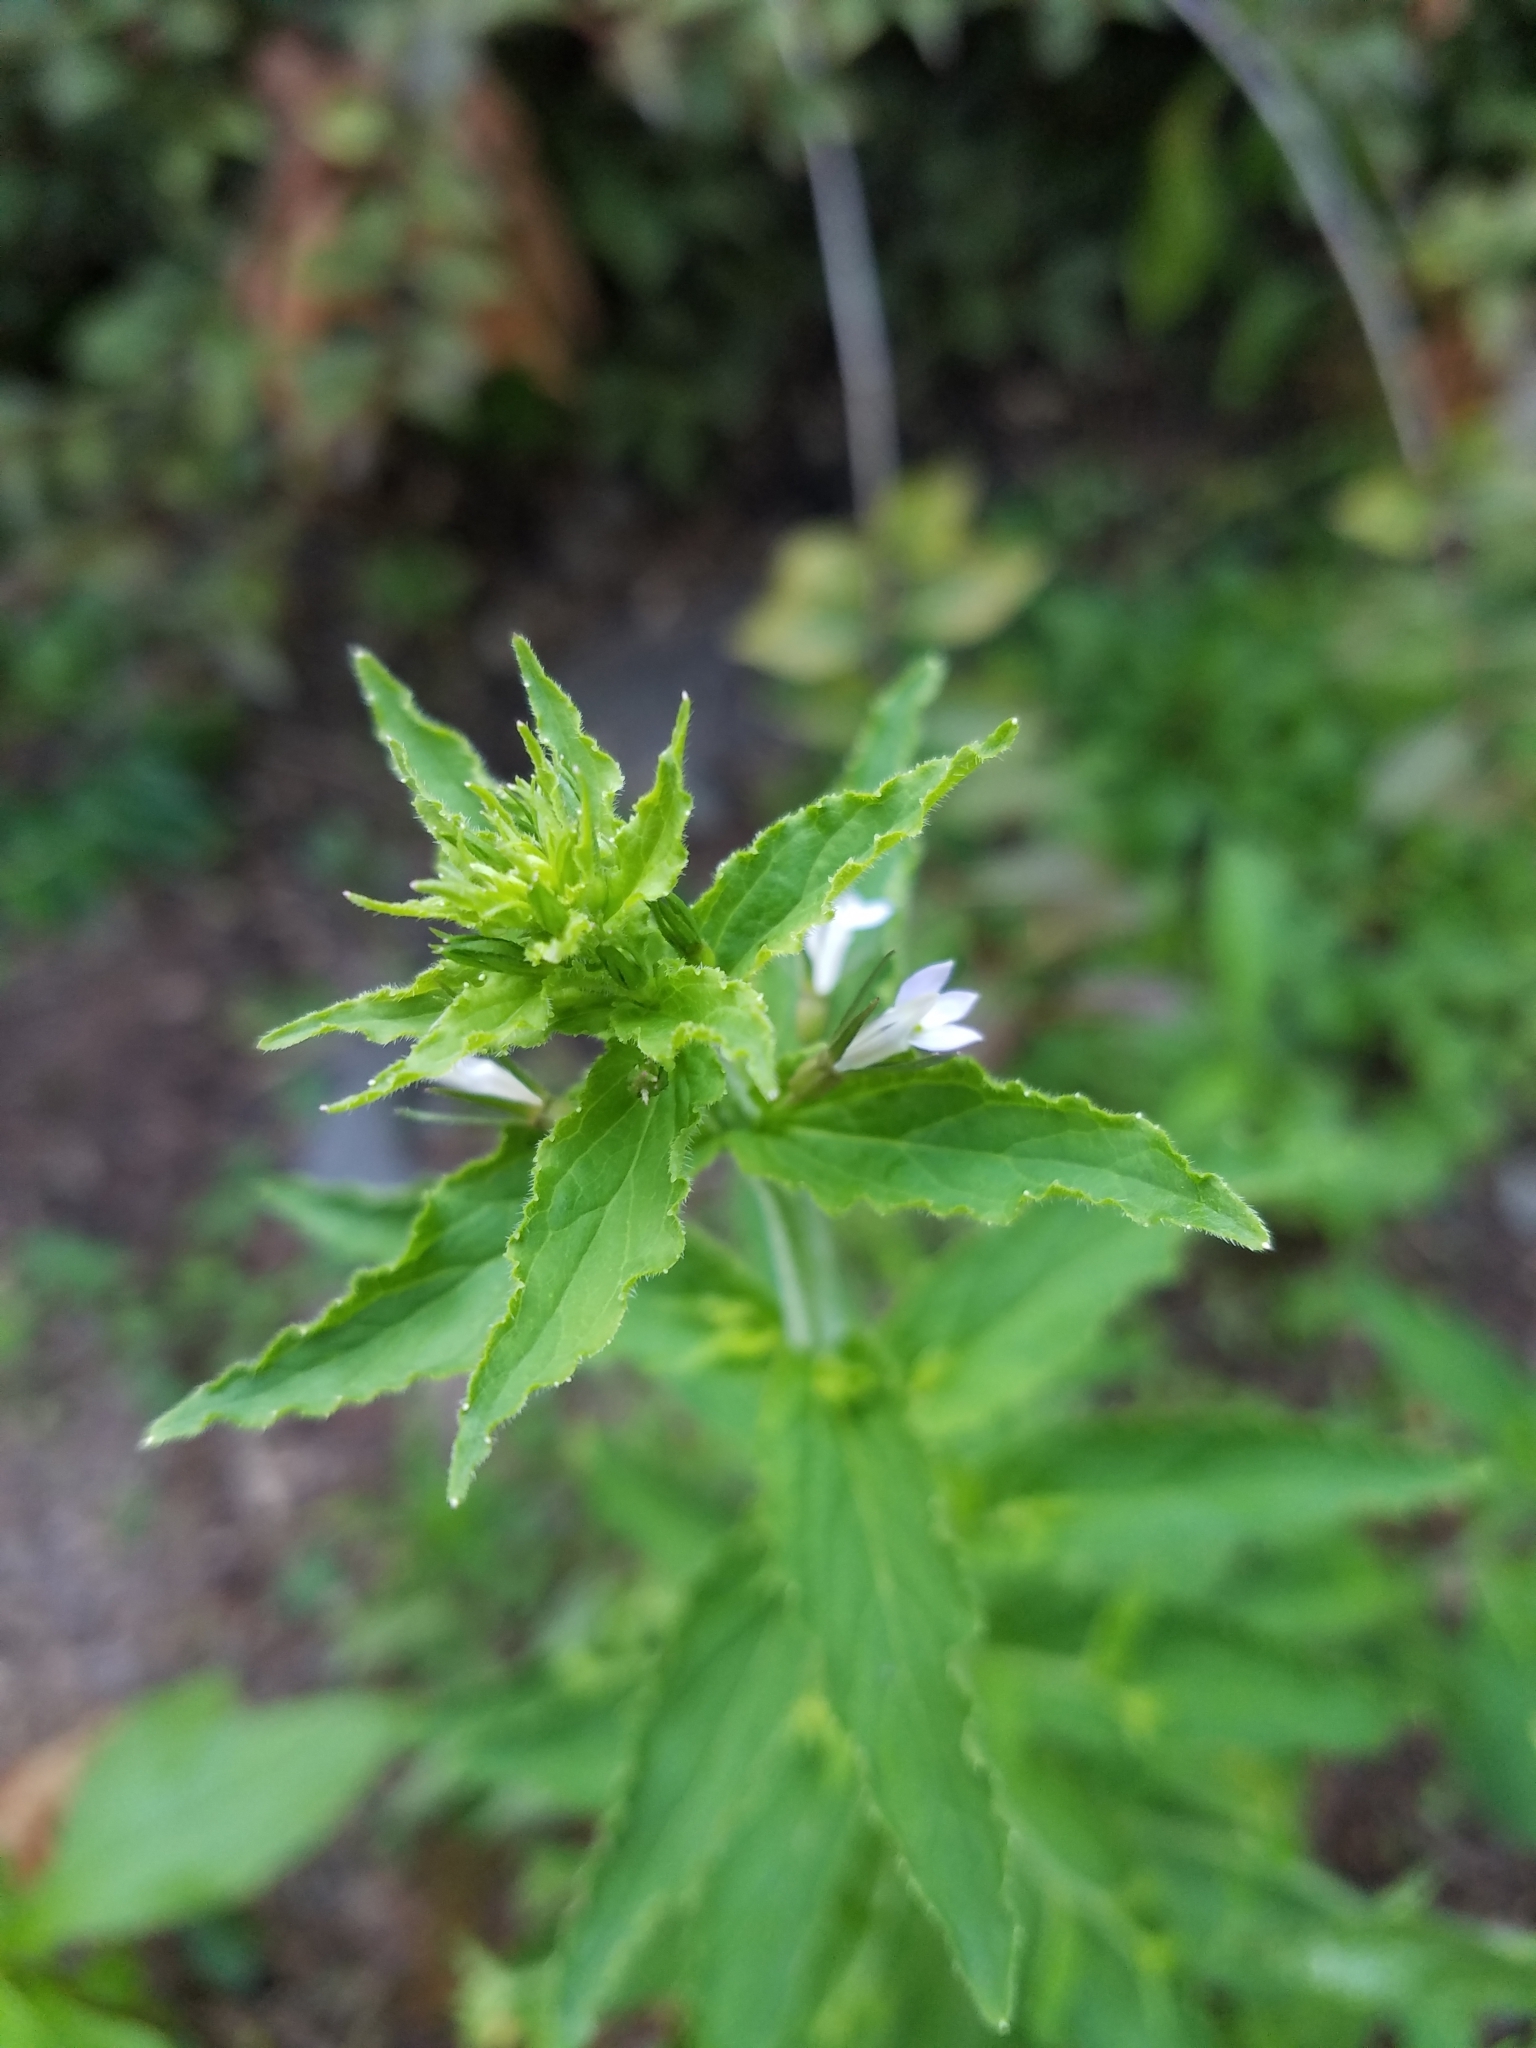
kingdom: Plantae
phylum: Tracheophyta
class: Magnoliopsida
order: Asterales
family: Campanulaceae
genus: Lobelia
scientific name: Lobelia inflata
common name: Indian tobacco
